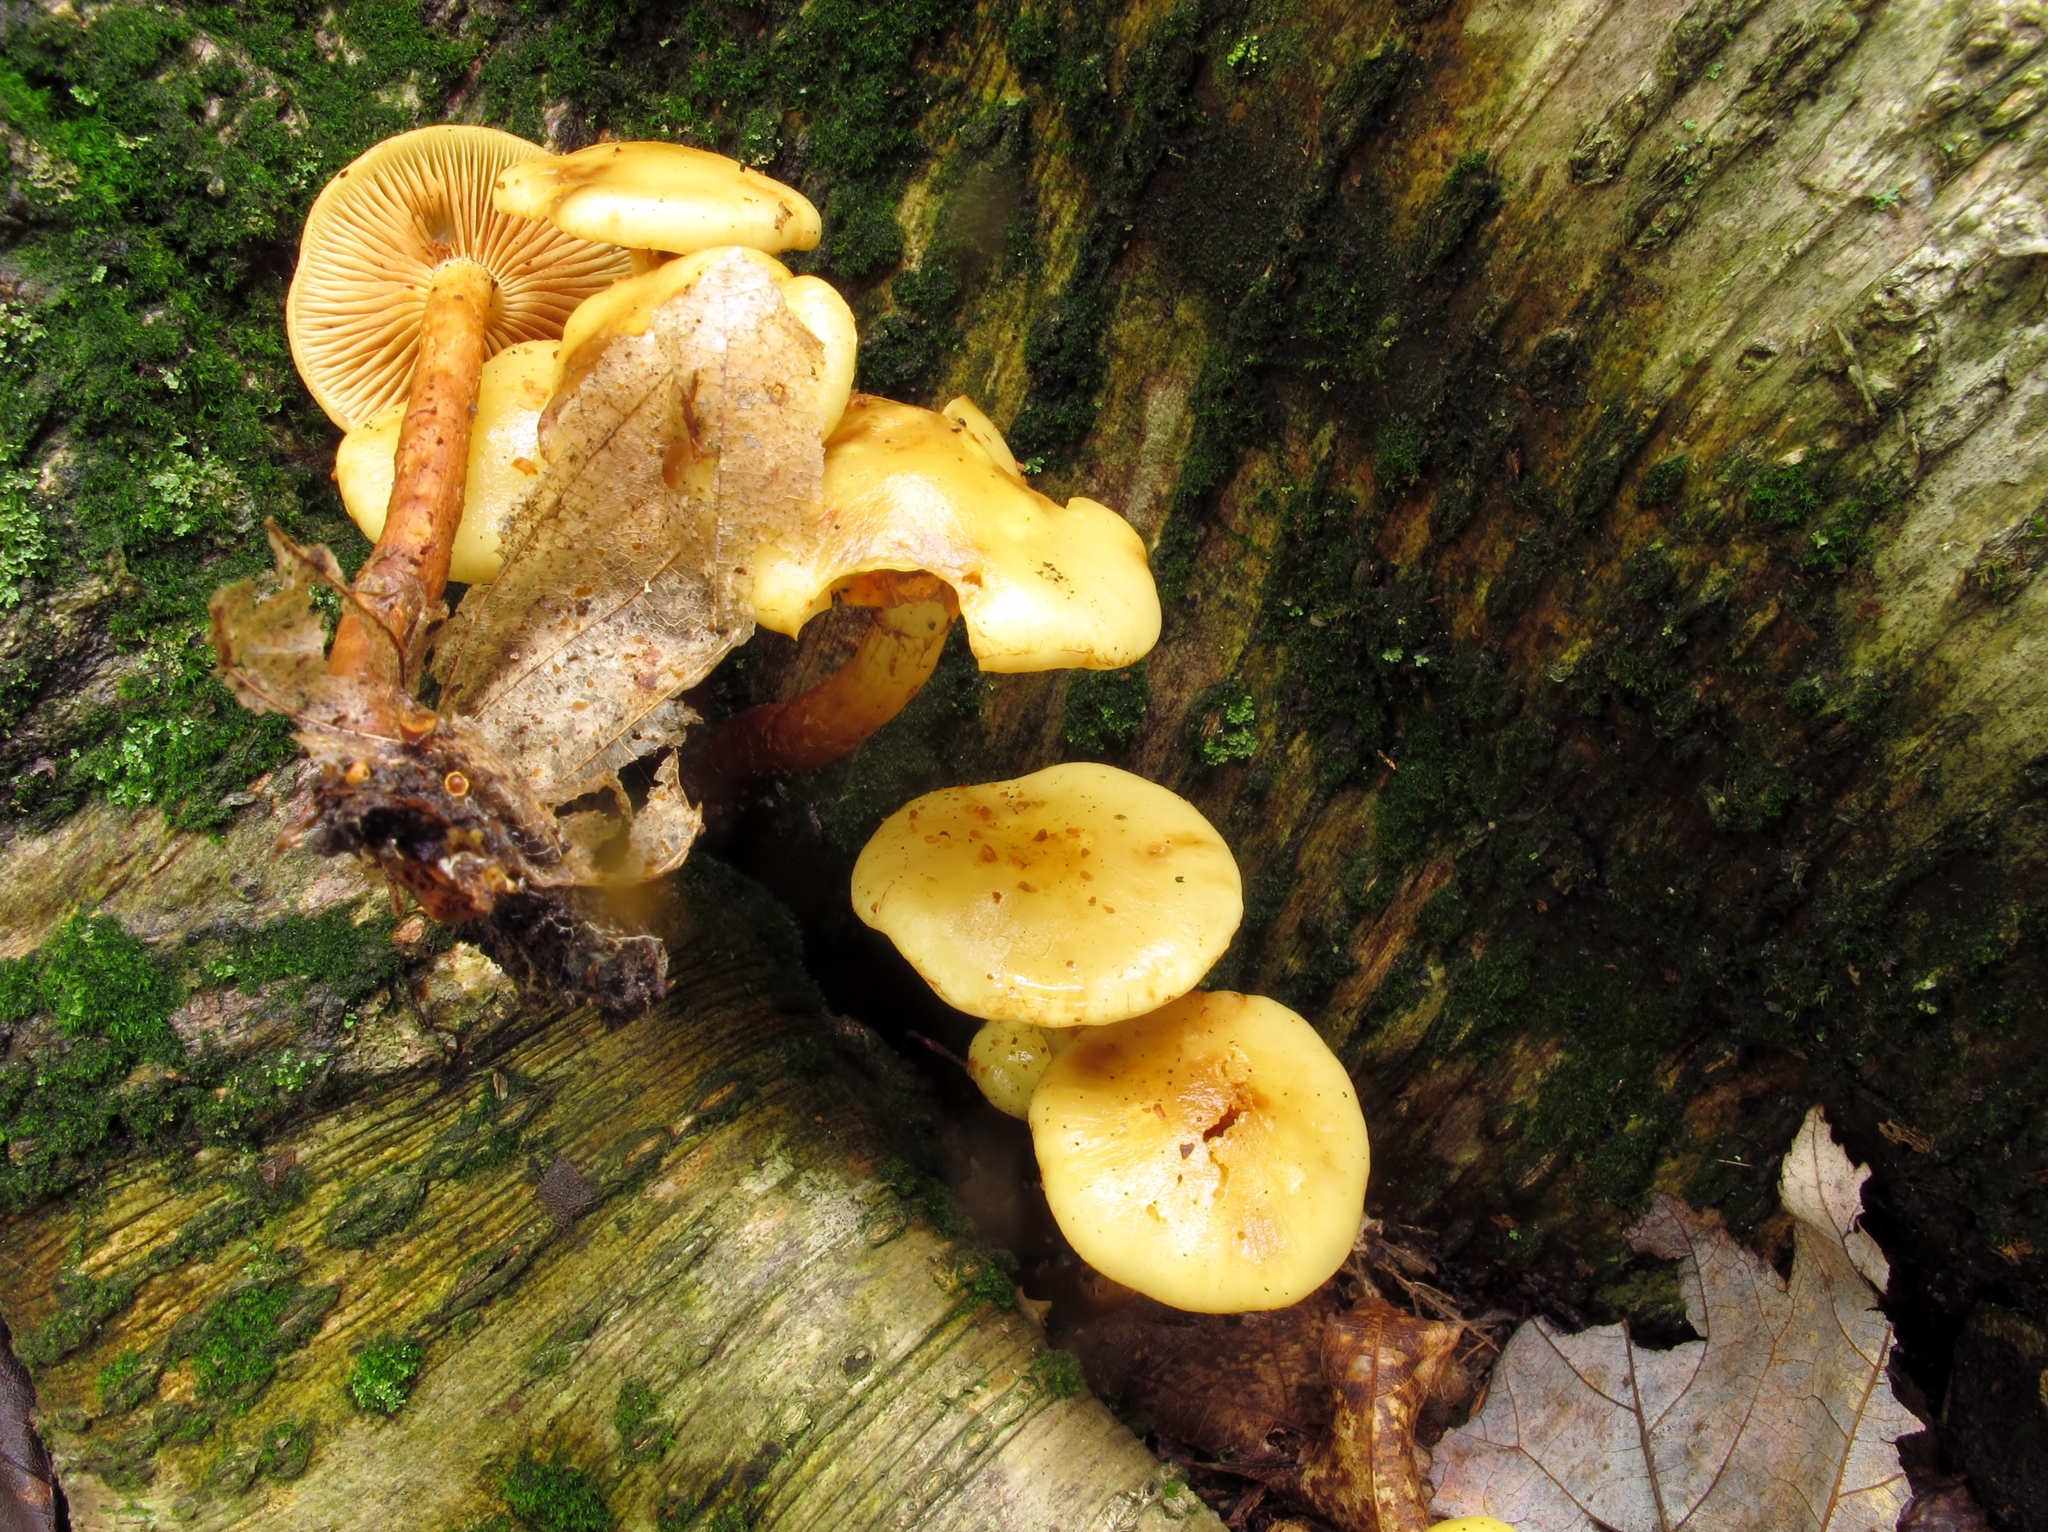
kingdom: Fungi
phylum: Basidiomycota
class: Agaricomycetes
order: Agaricales
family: Hymenogastraceae
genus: Flammula
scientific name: Flammula alnicola
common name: Alder scalycap
